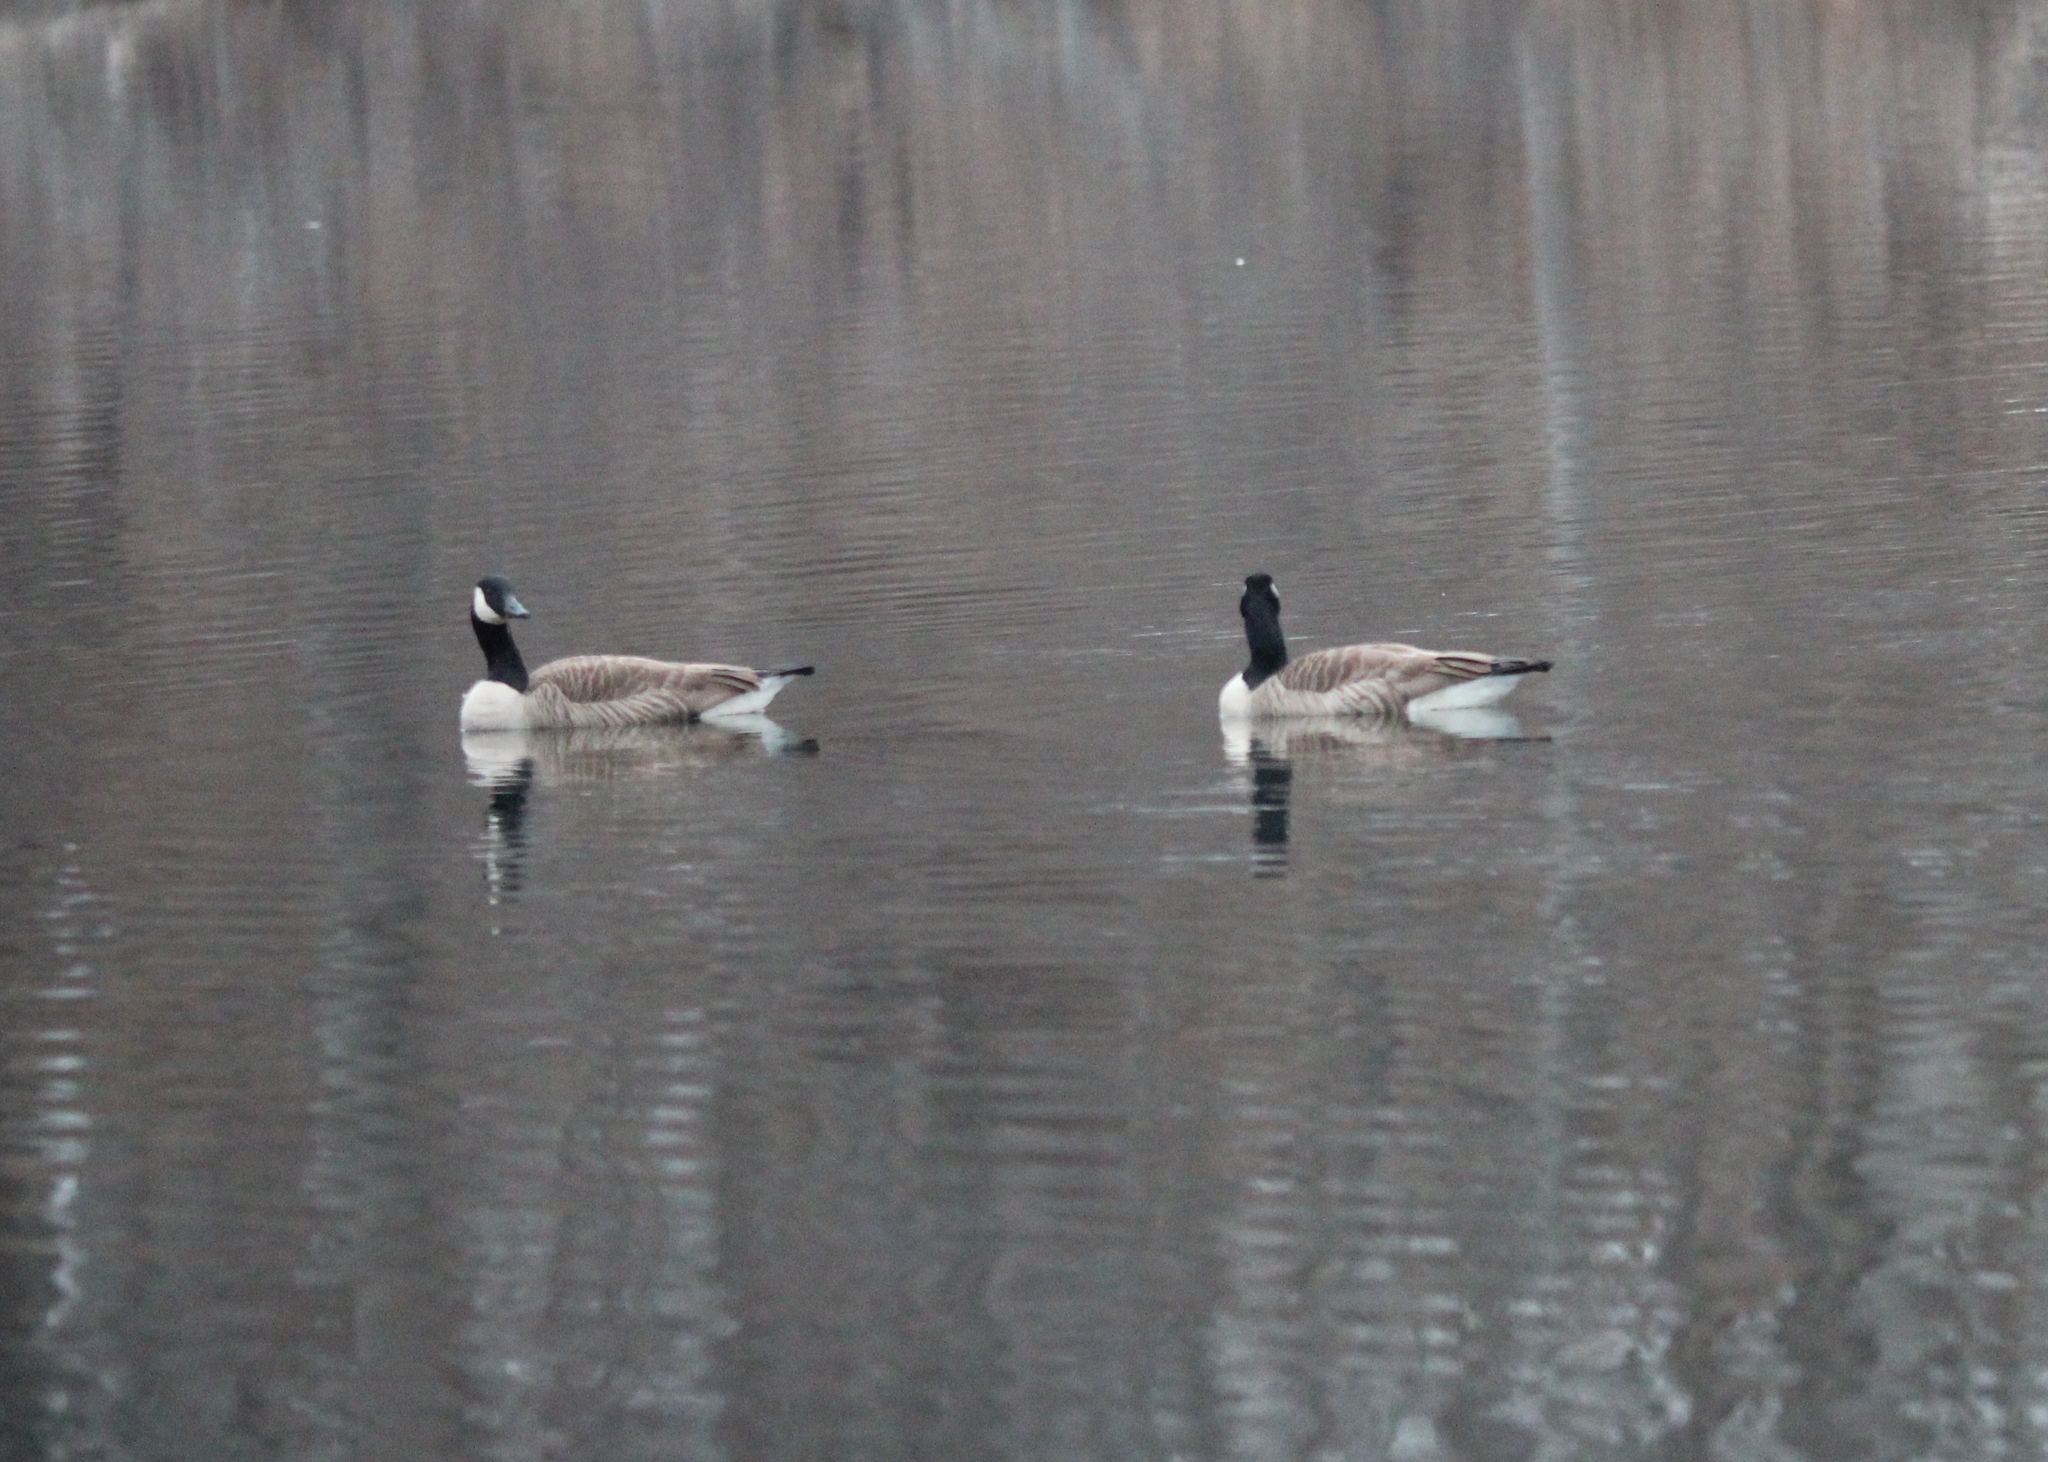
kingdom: Animalia
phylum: Chordata
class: Aves
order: Anseriformes
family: Anatidae
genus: Branta
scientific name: Branta canadensis
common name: Canada goose
